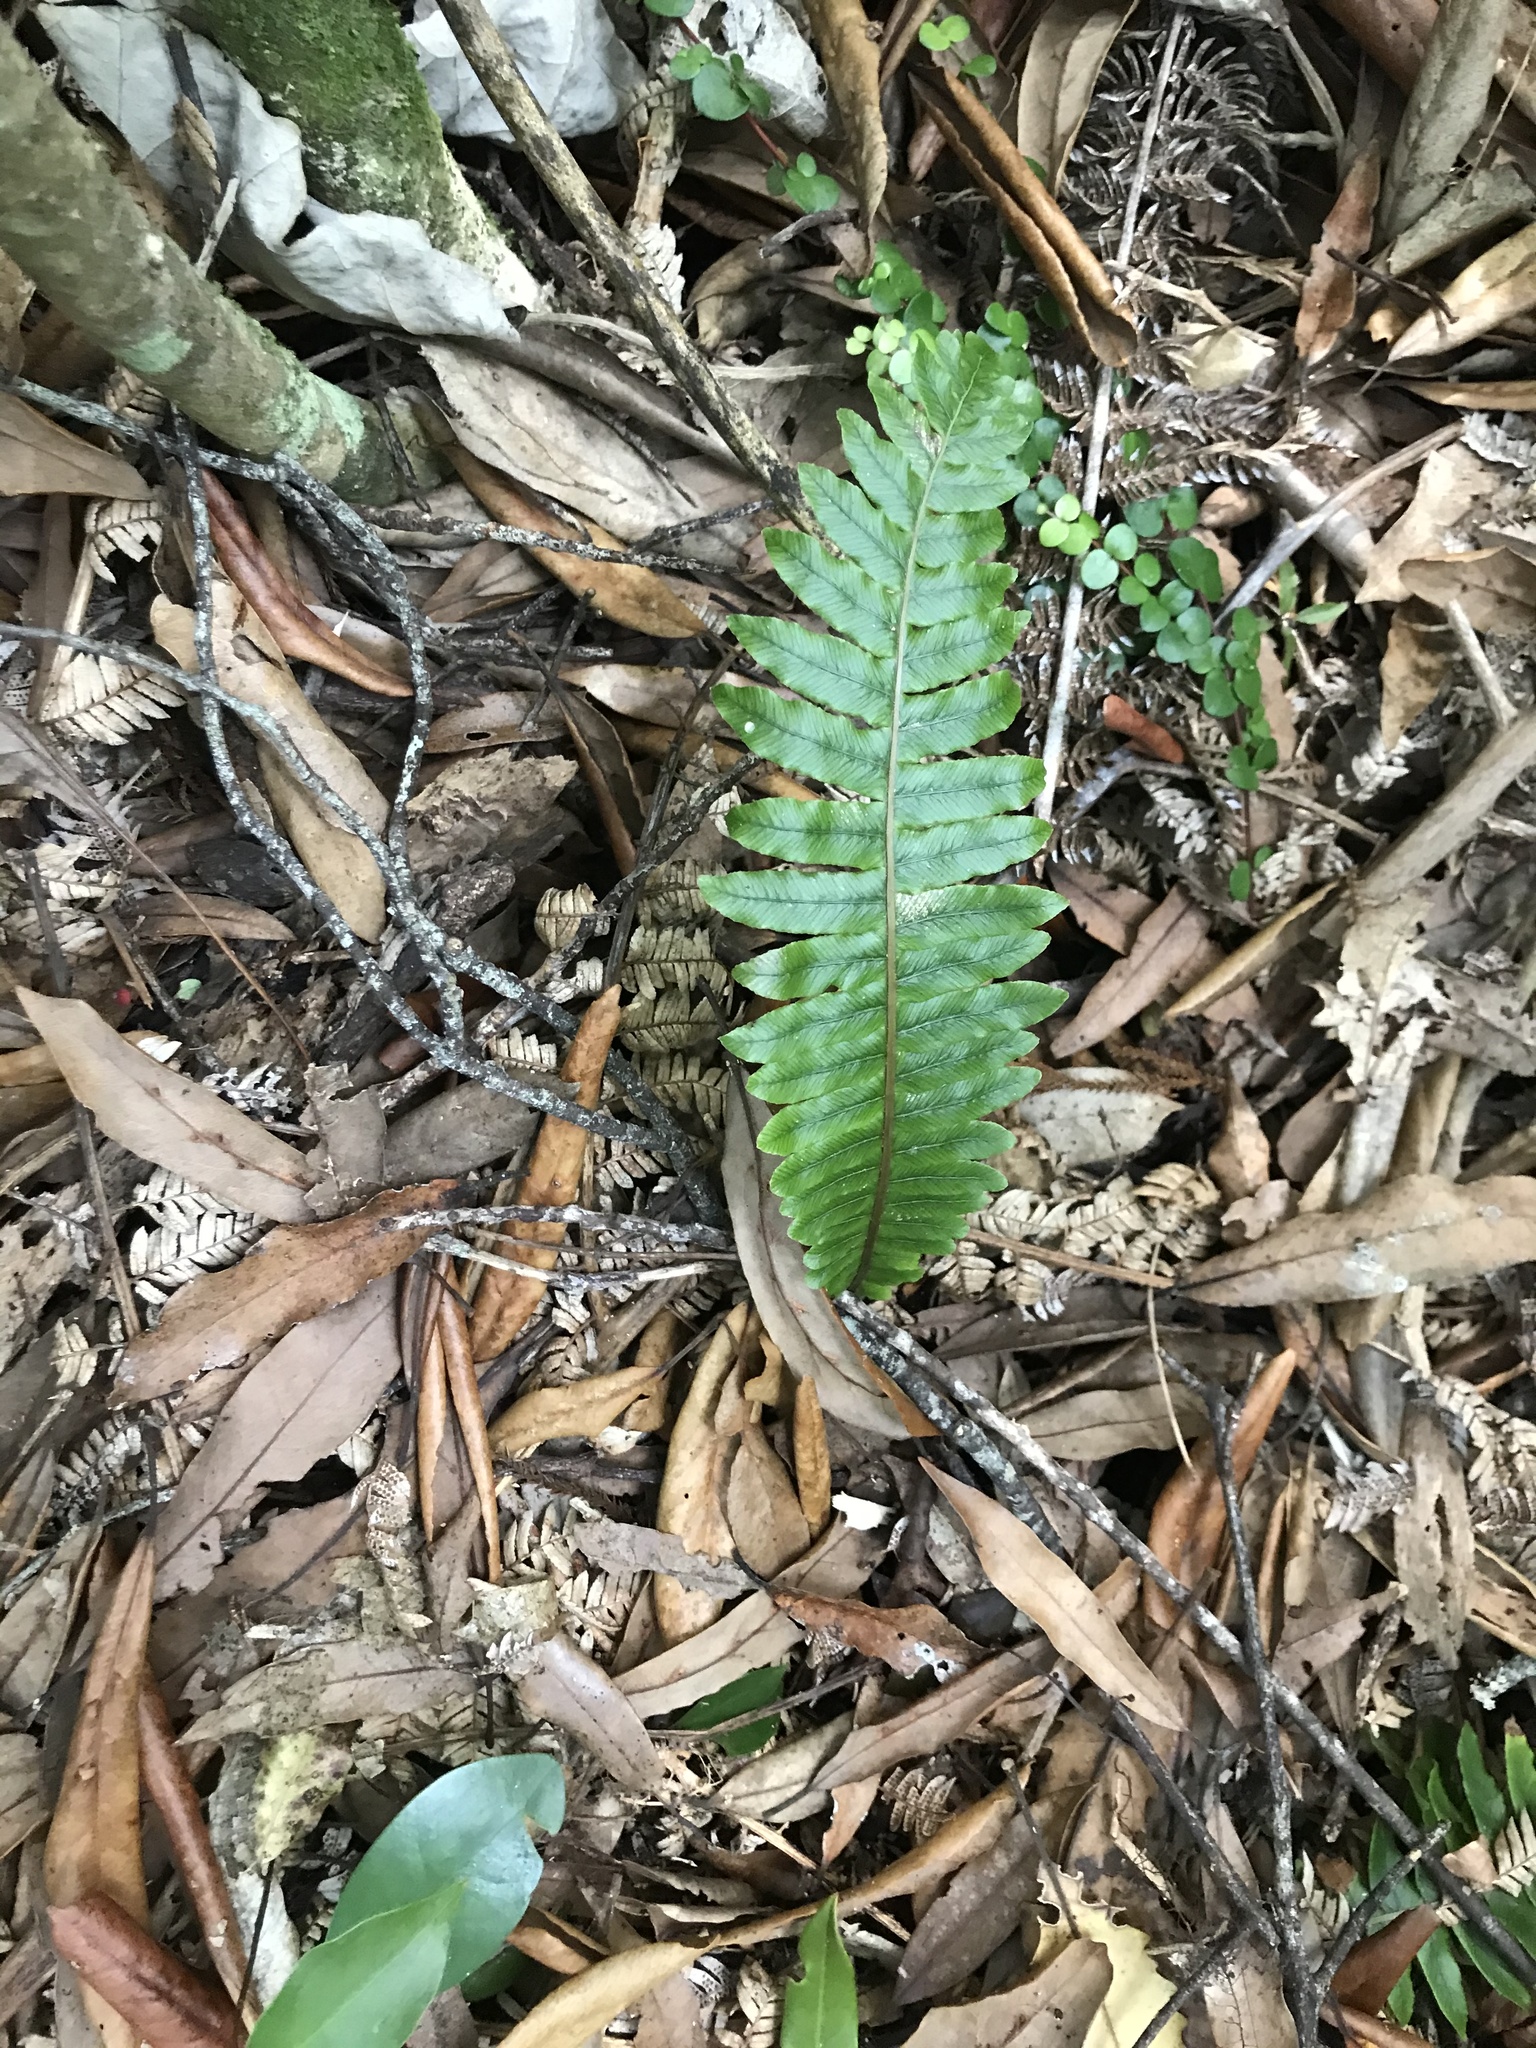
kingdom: Plantae
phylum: Tracheophyta
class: Polypodiopsida
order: Polypodiales
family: Blechnaceae
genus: Lomaria
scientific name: Lomaria discolor
